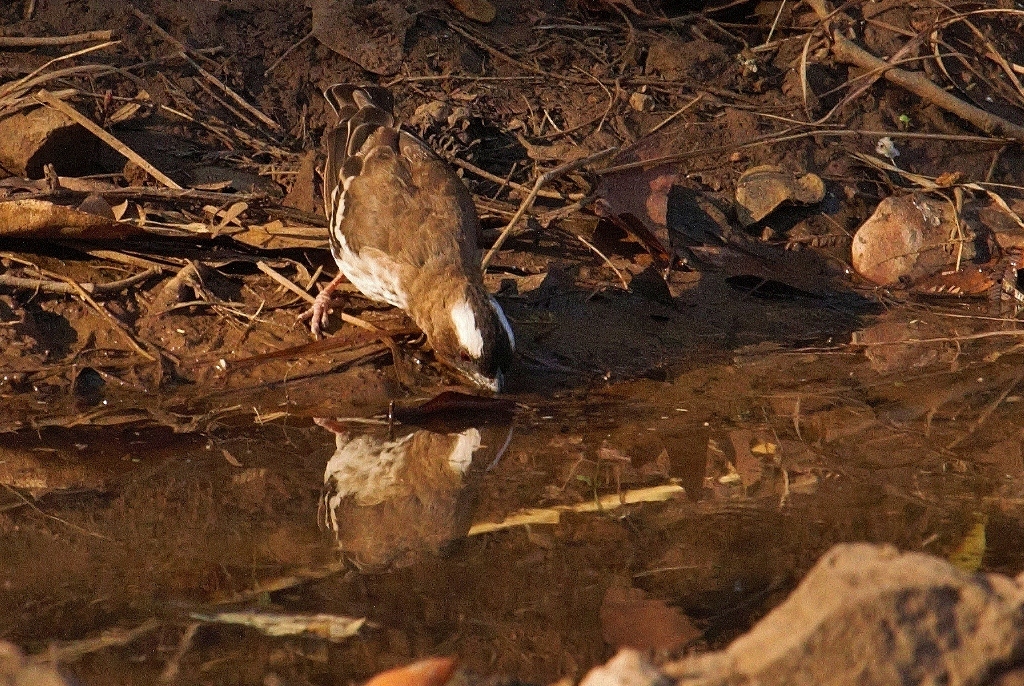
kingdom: Animalia
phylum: Chordata
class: Aves
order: Passeriformes
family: Passeridae
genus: Plocepasser
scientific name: Plocepasser mahali
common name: White-browed sparrow-weaver
